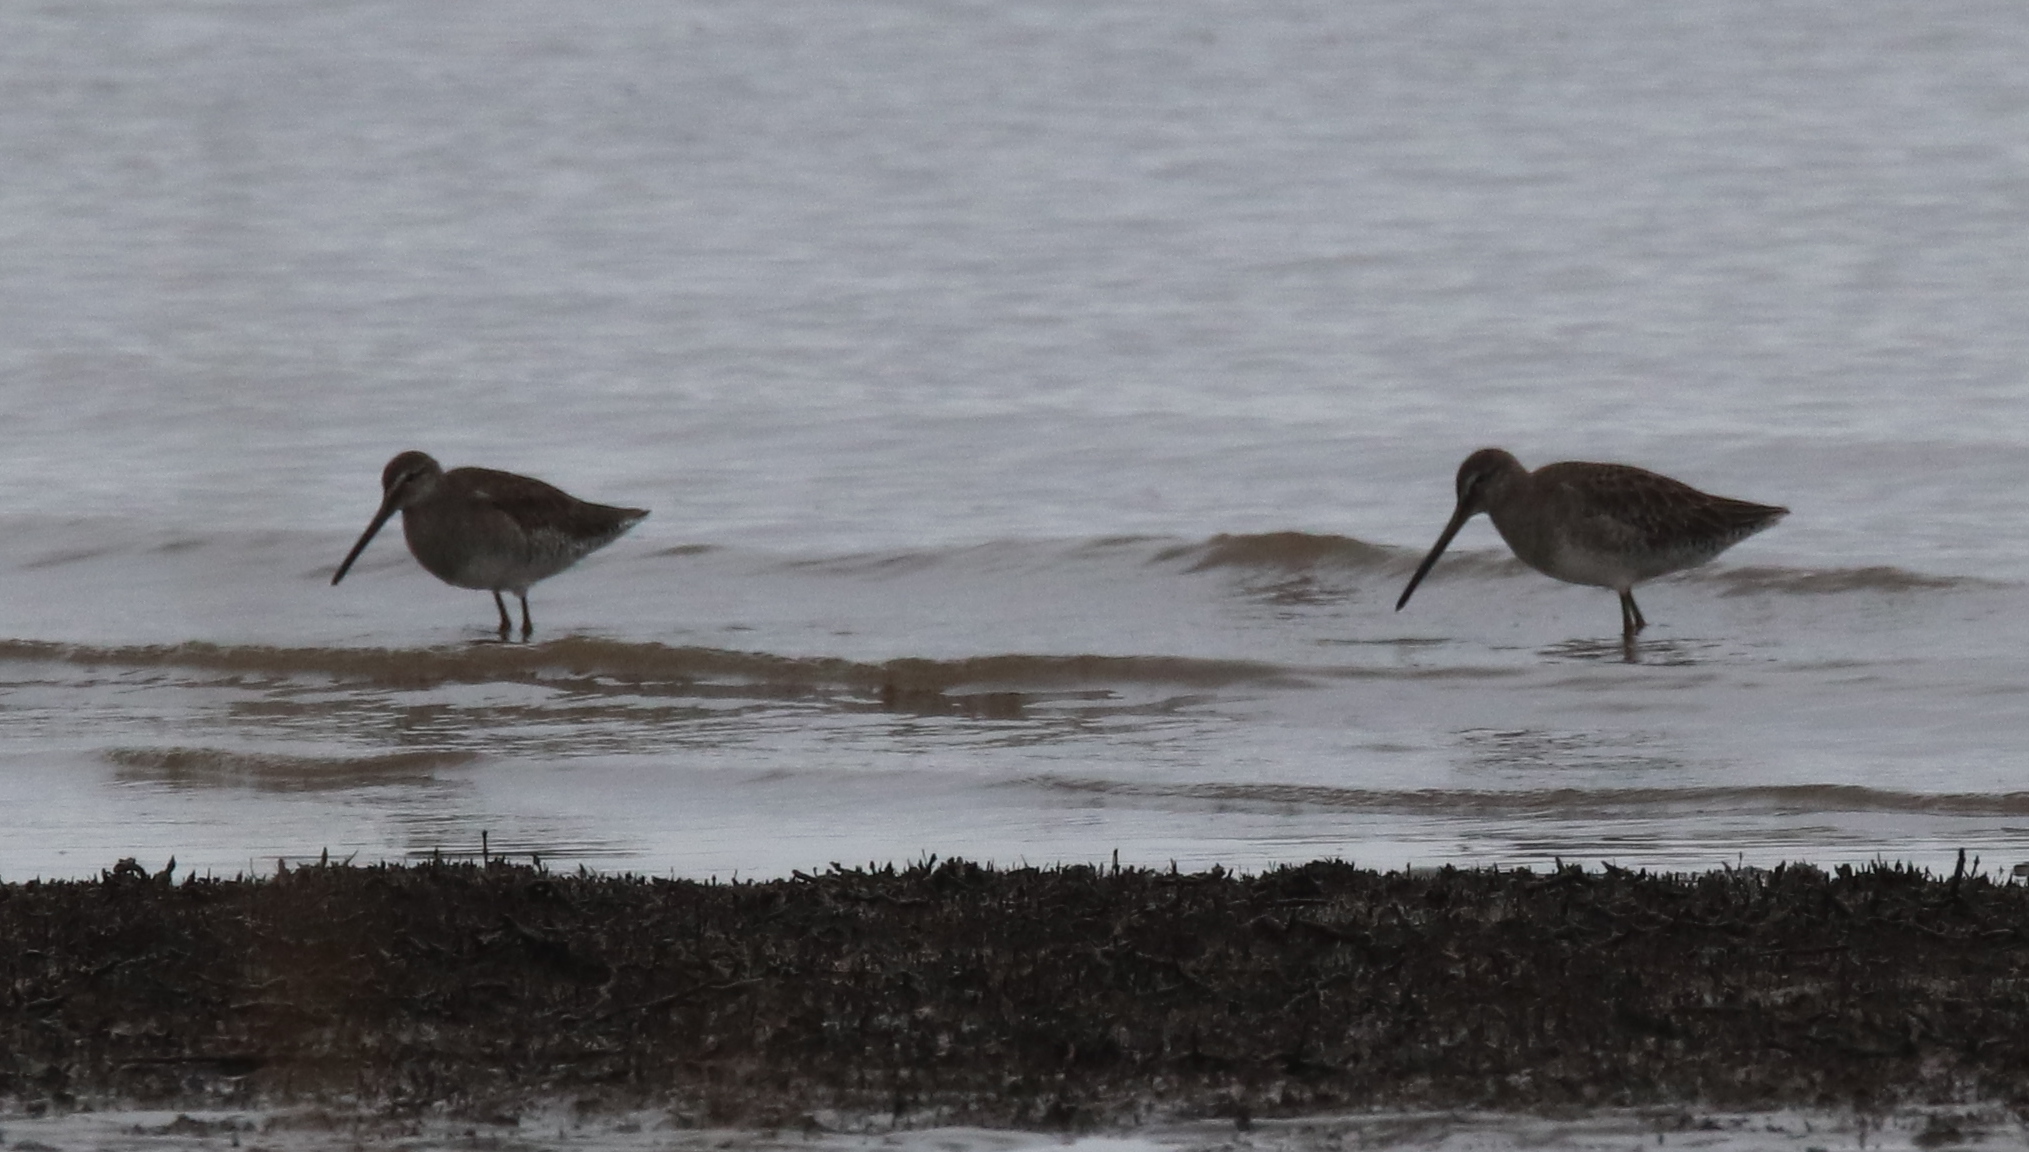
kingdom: Animalia
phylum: Chordata
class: Aves
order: Charadriiformes
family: Scolopacidae
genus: Limnodromus
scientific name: Limnodromus
